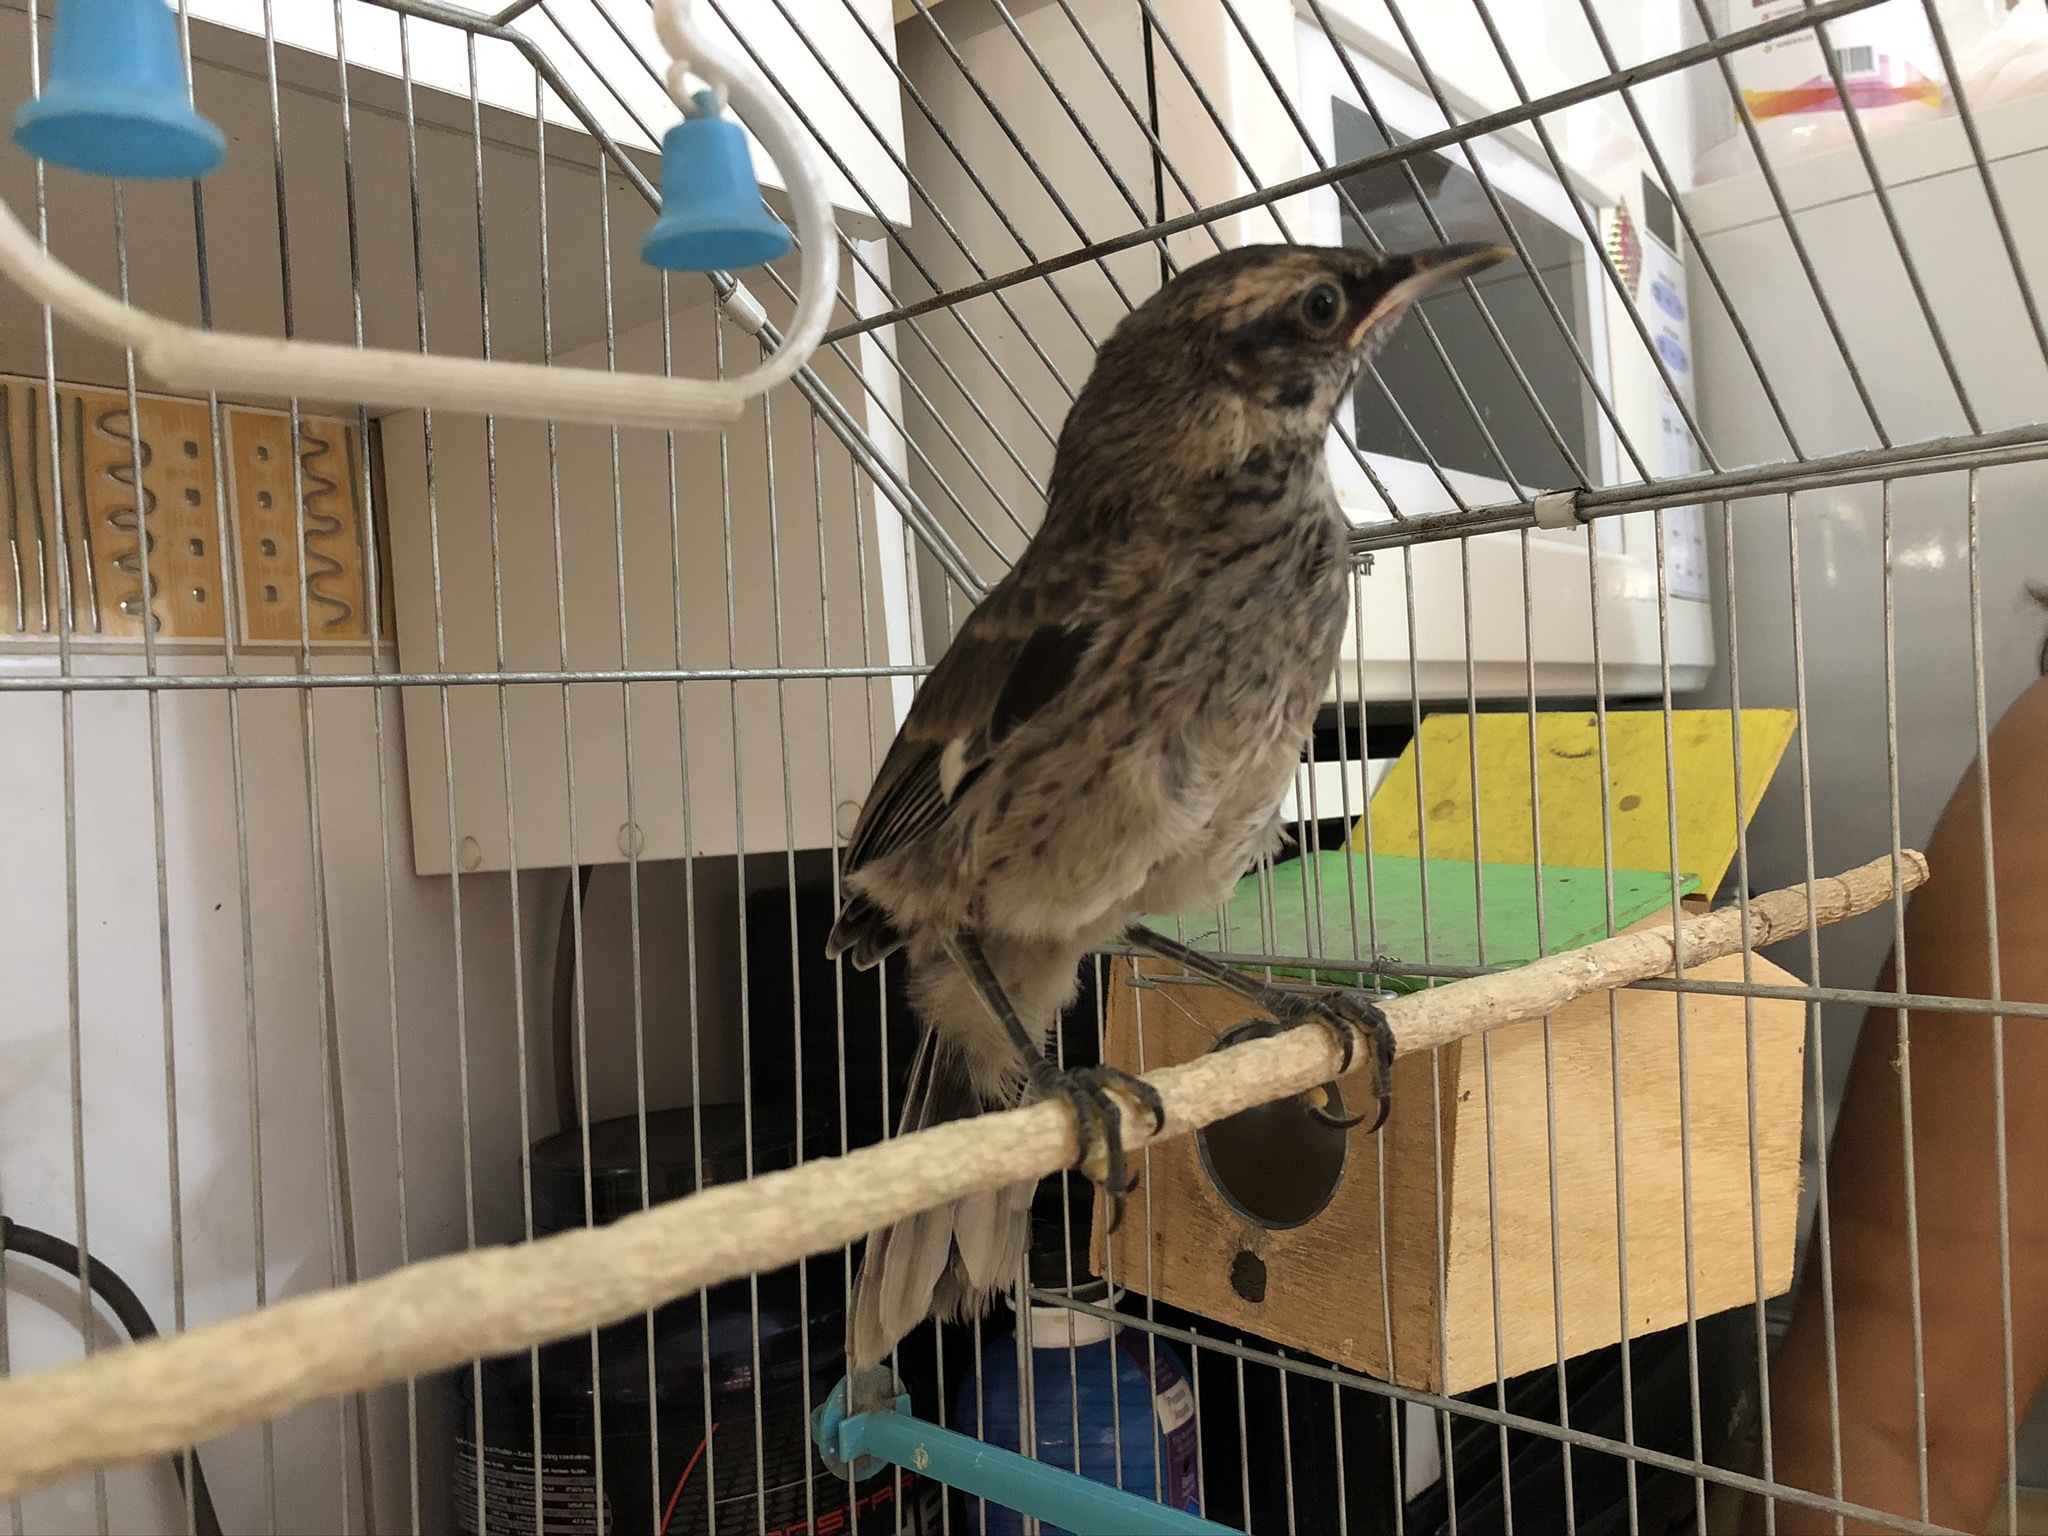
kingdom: Animalia
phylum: Chordata
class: Aves
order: Passeriformes
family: Mimidae
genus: Mimus
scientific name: Mimus longicaudatus
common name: Long-tailed mockingbird
